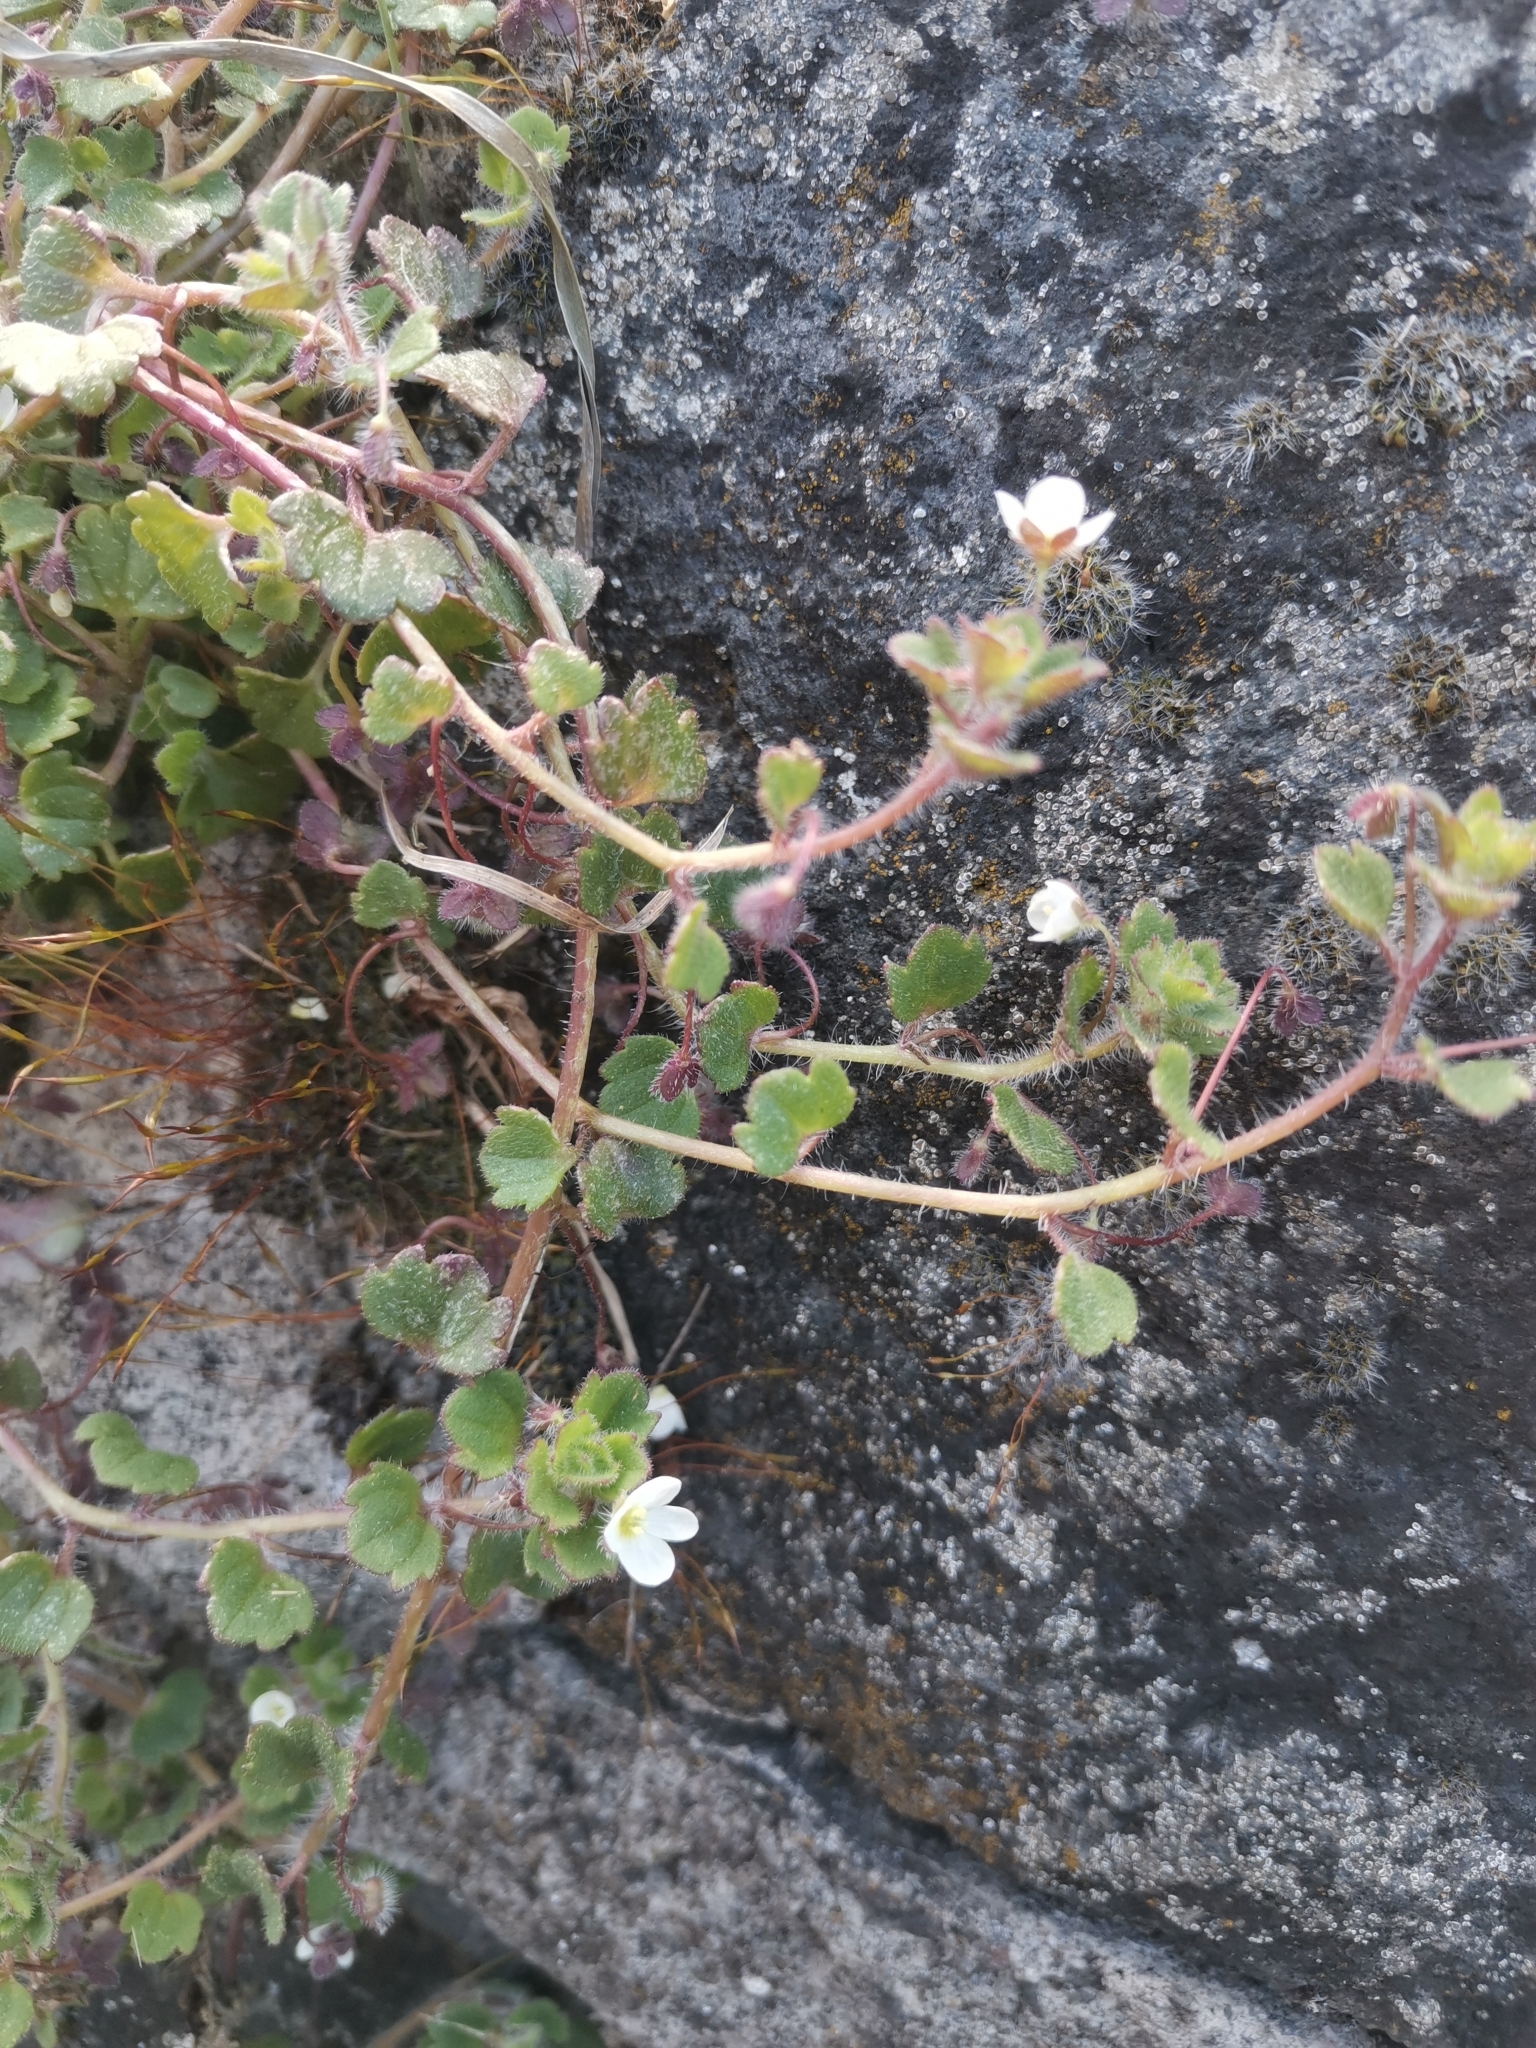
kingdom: Plantae
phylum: Tracheophyta
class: Magnoliopsida
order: Lamiales
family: Plantaginaceae
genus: Veronica
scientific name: Veronica cymbalaria
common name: Pale speedwell
